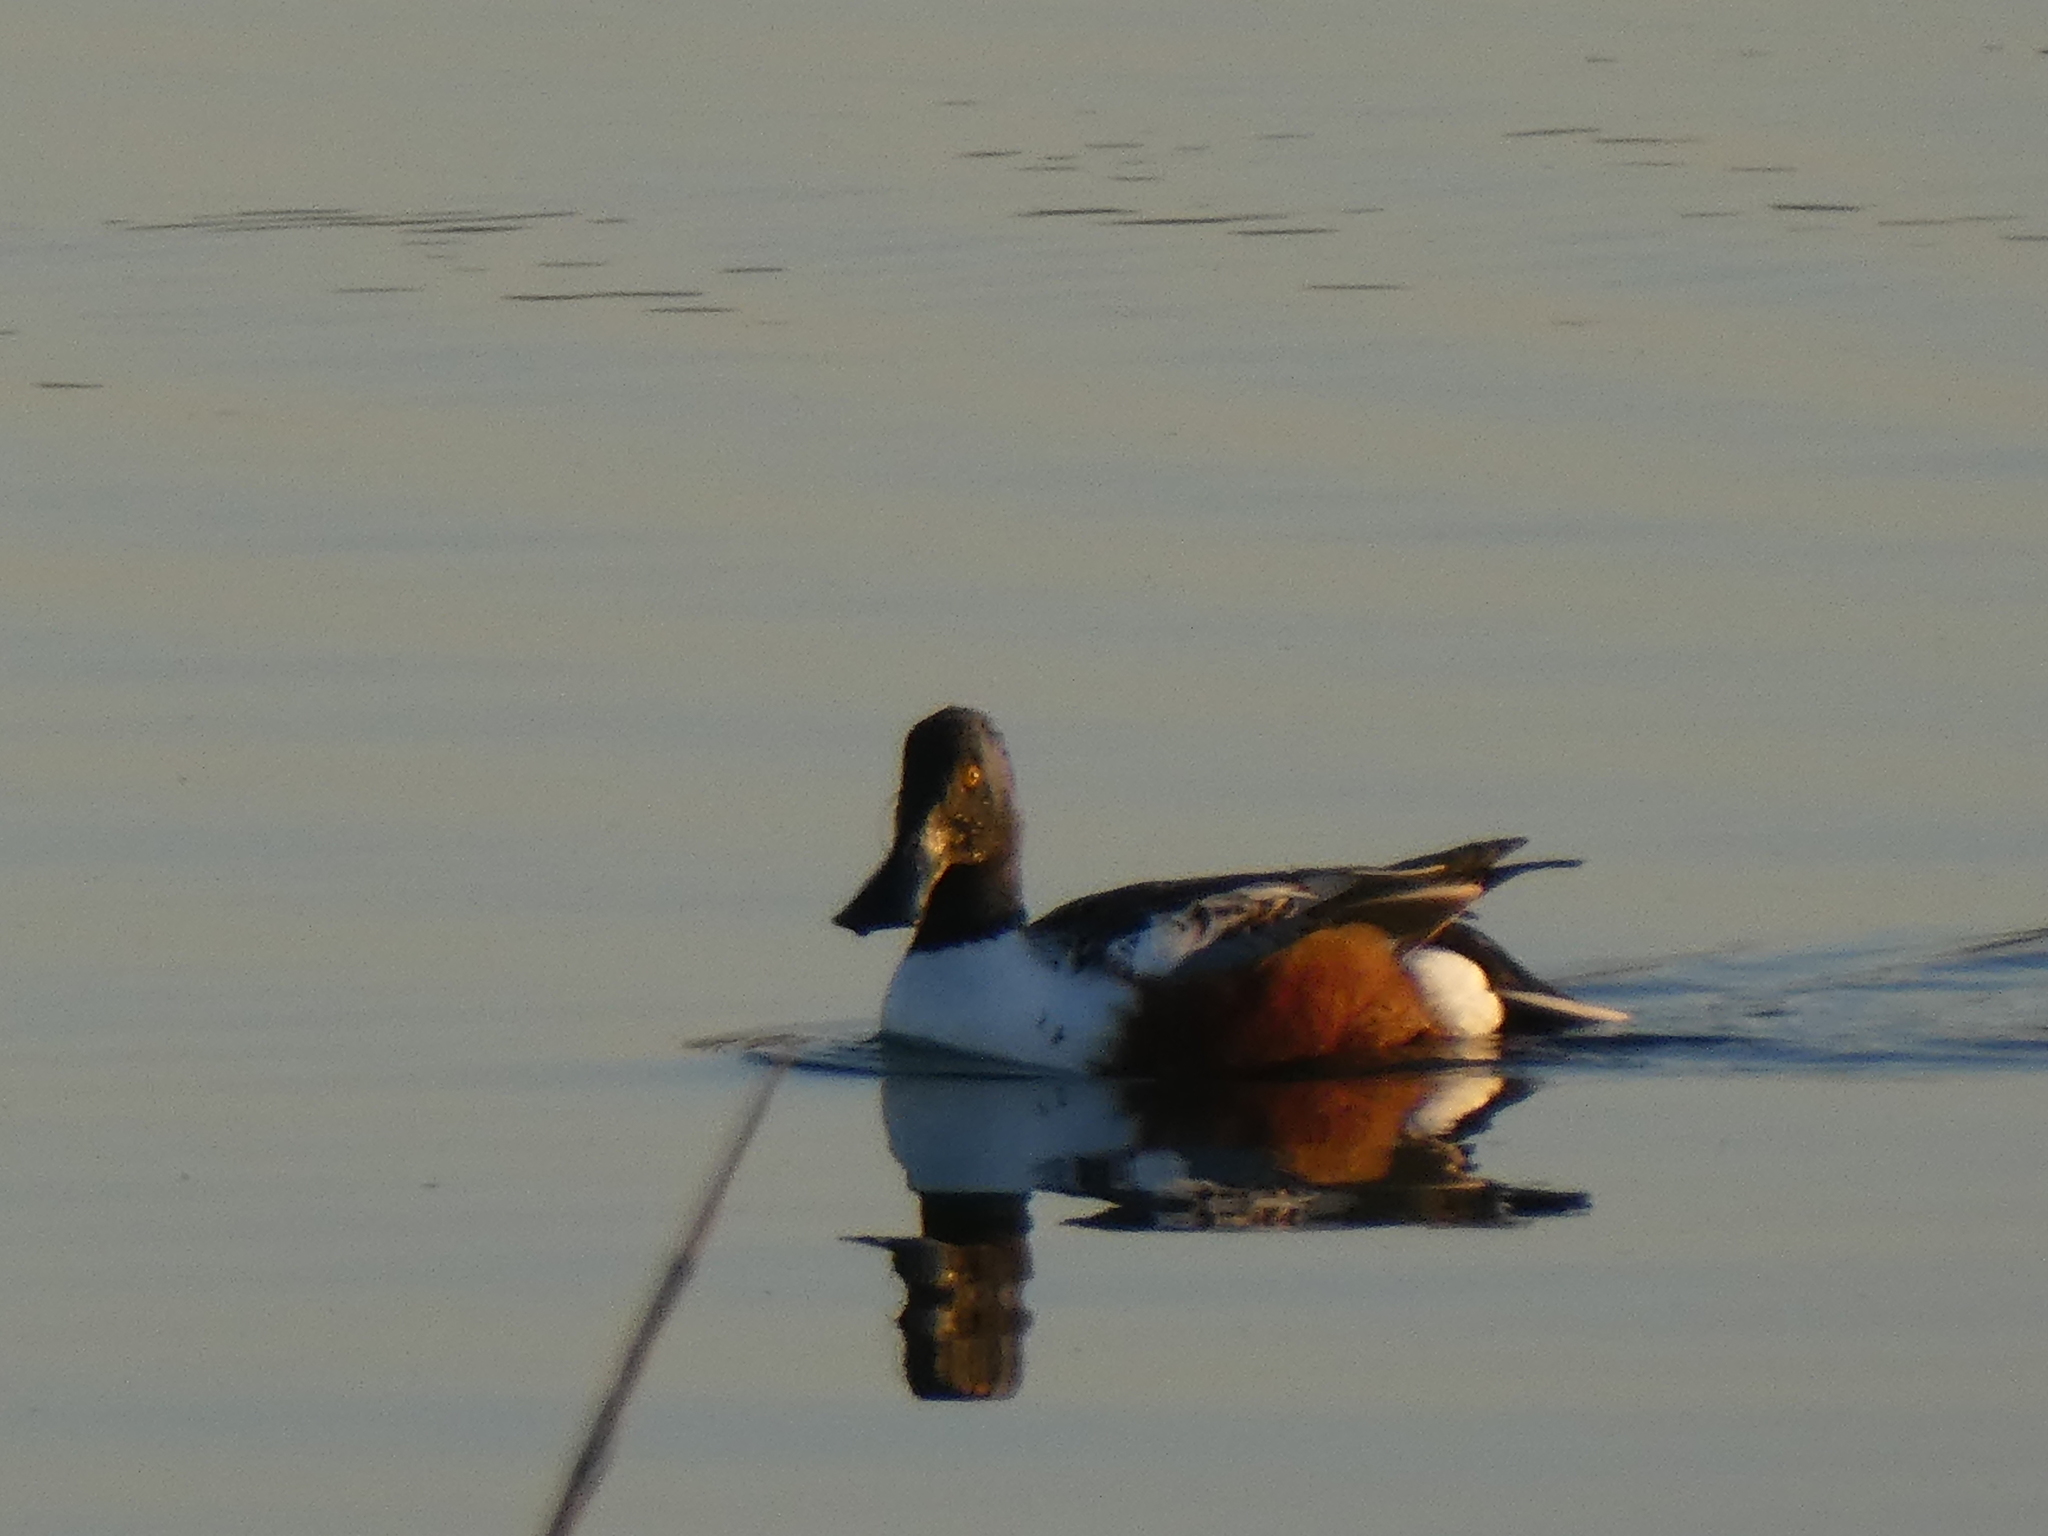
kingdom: Animalia
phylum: Chordata
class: Aves
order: Anseriformes
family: Anatidae
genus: Spatula
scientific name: Spatula clypeata
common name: Northern shoveler
